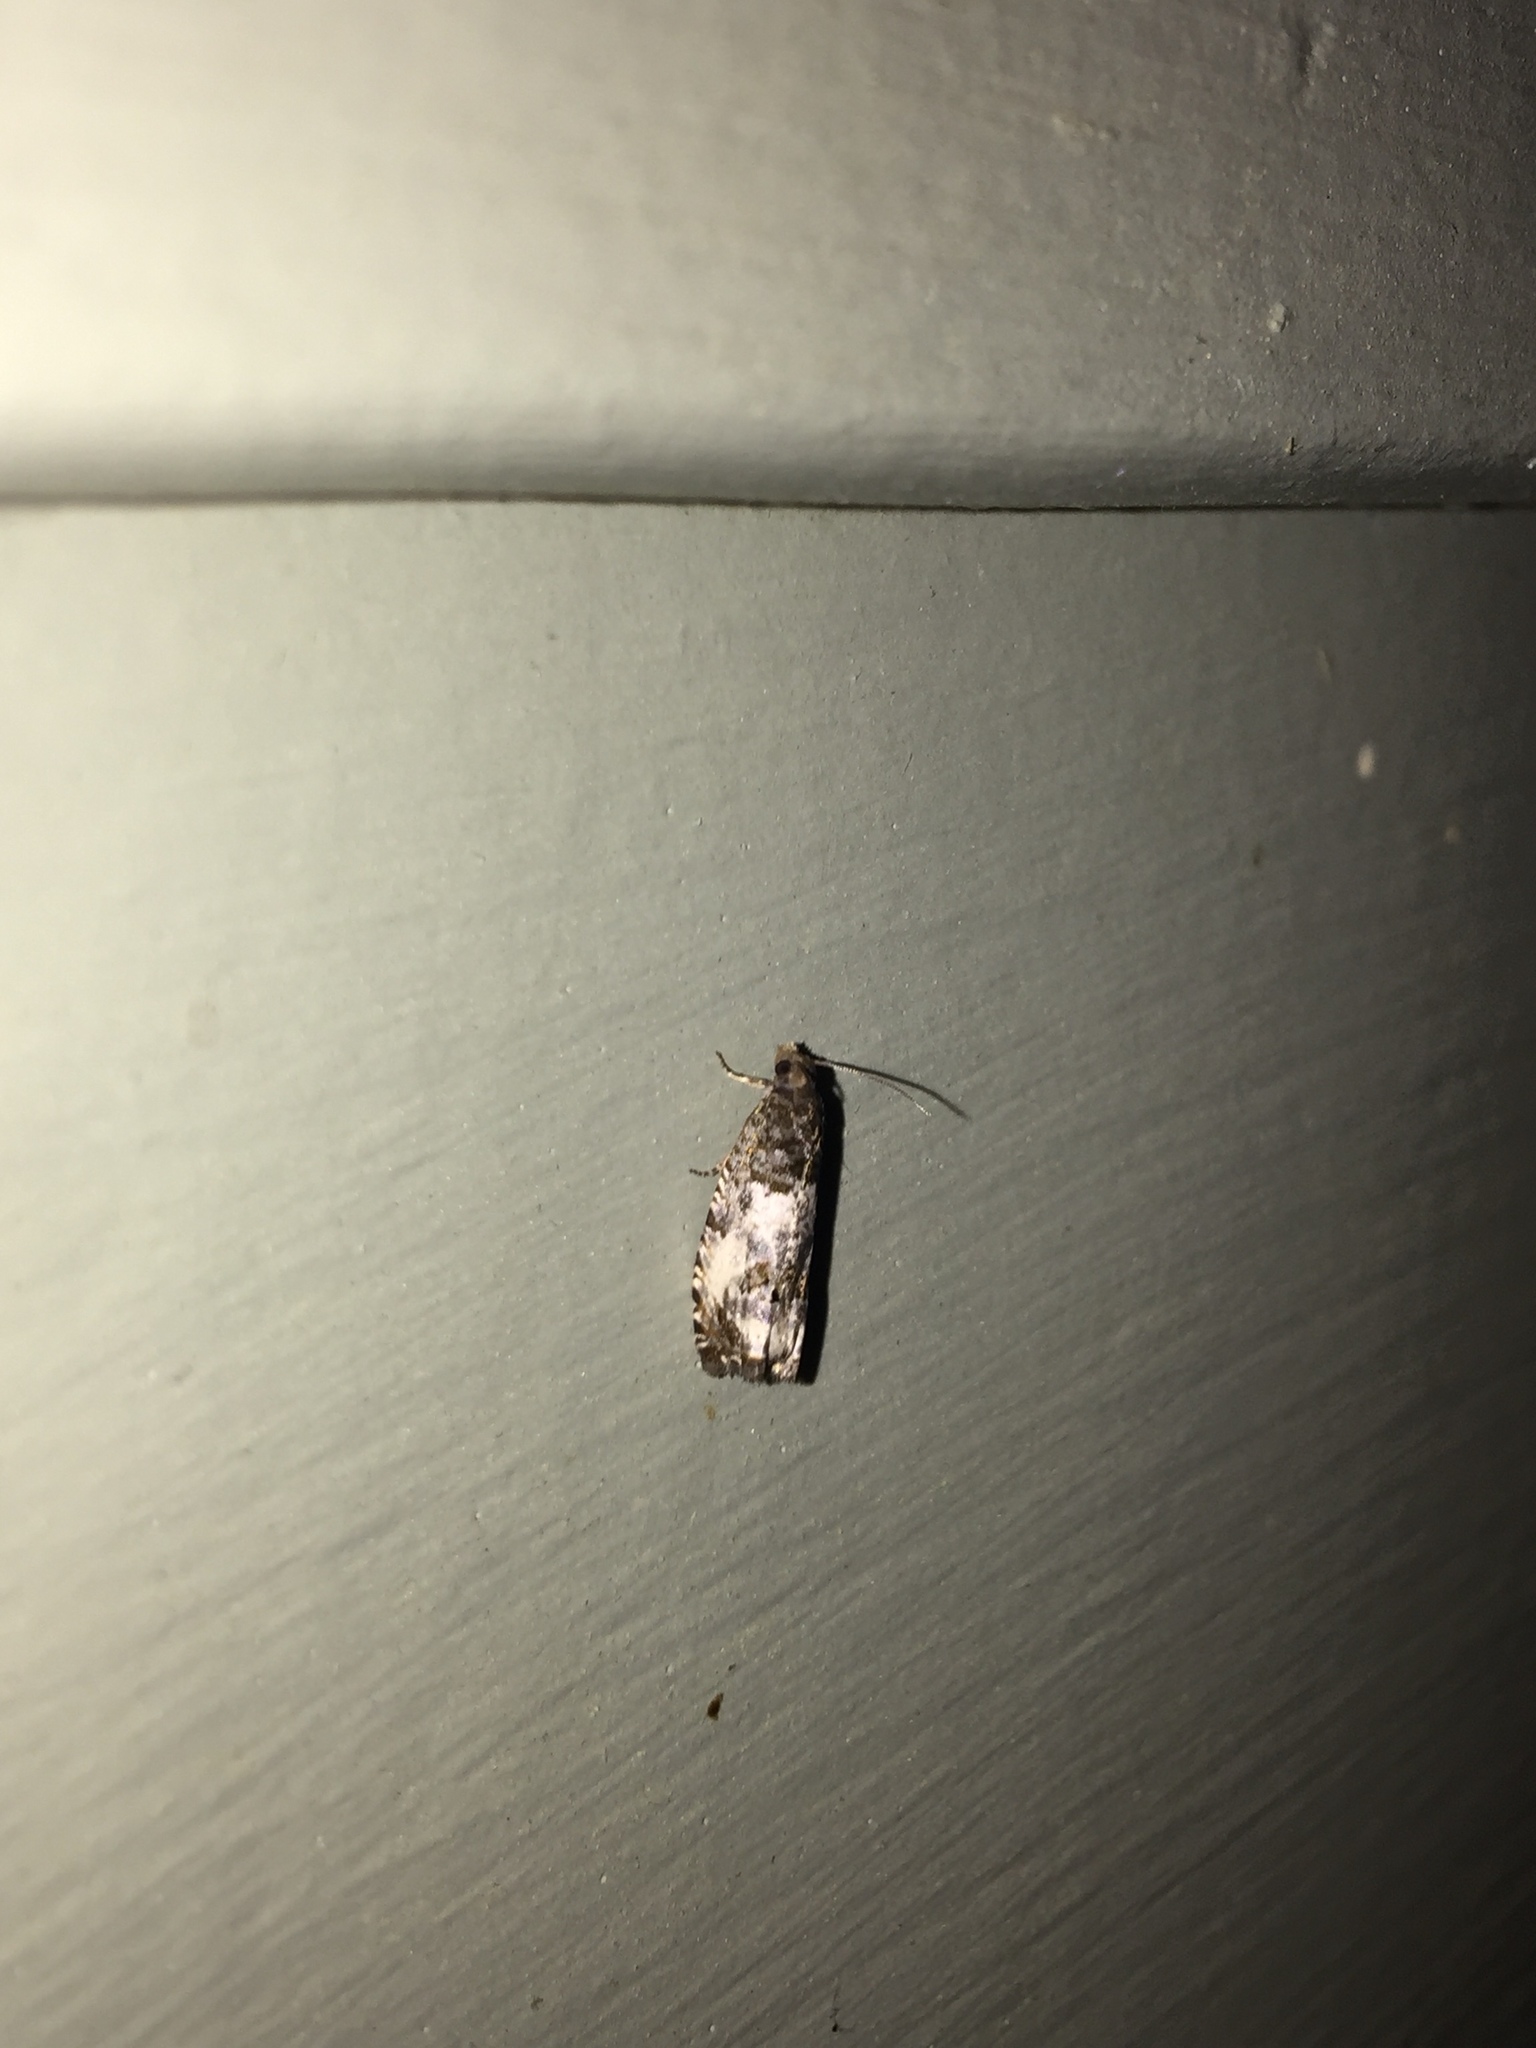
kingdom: Animalia
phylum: Arthropoda
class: Insecta
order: Lepidoptera
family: Tortricidae
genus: Notocelia
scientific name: Notocelia rosaecolana
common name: Common rose bell
